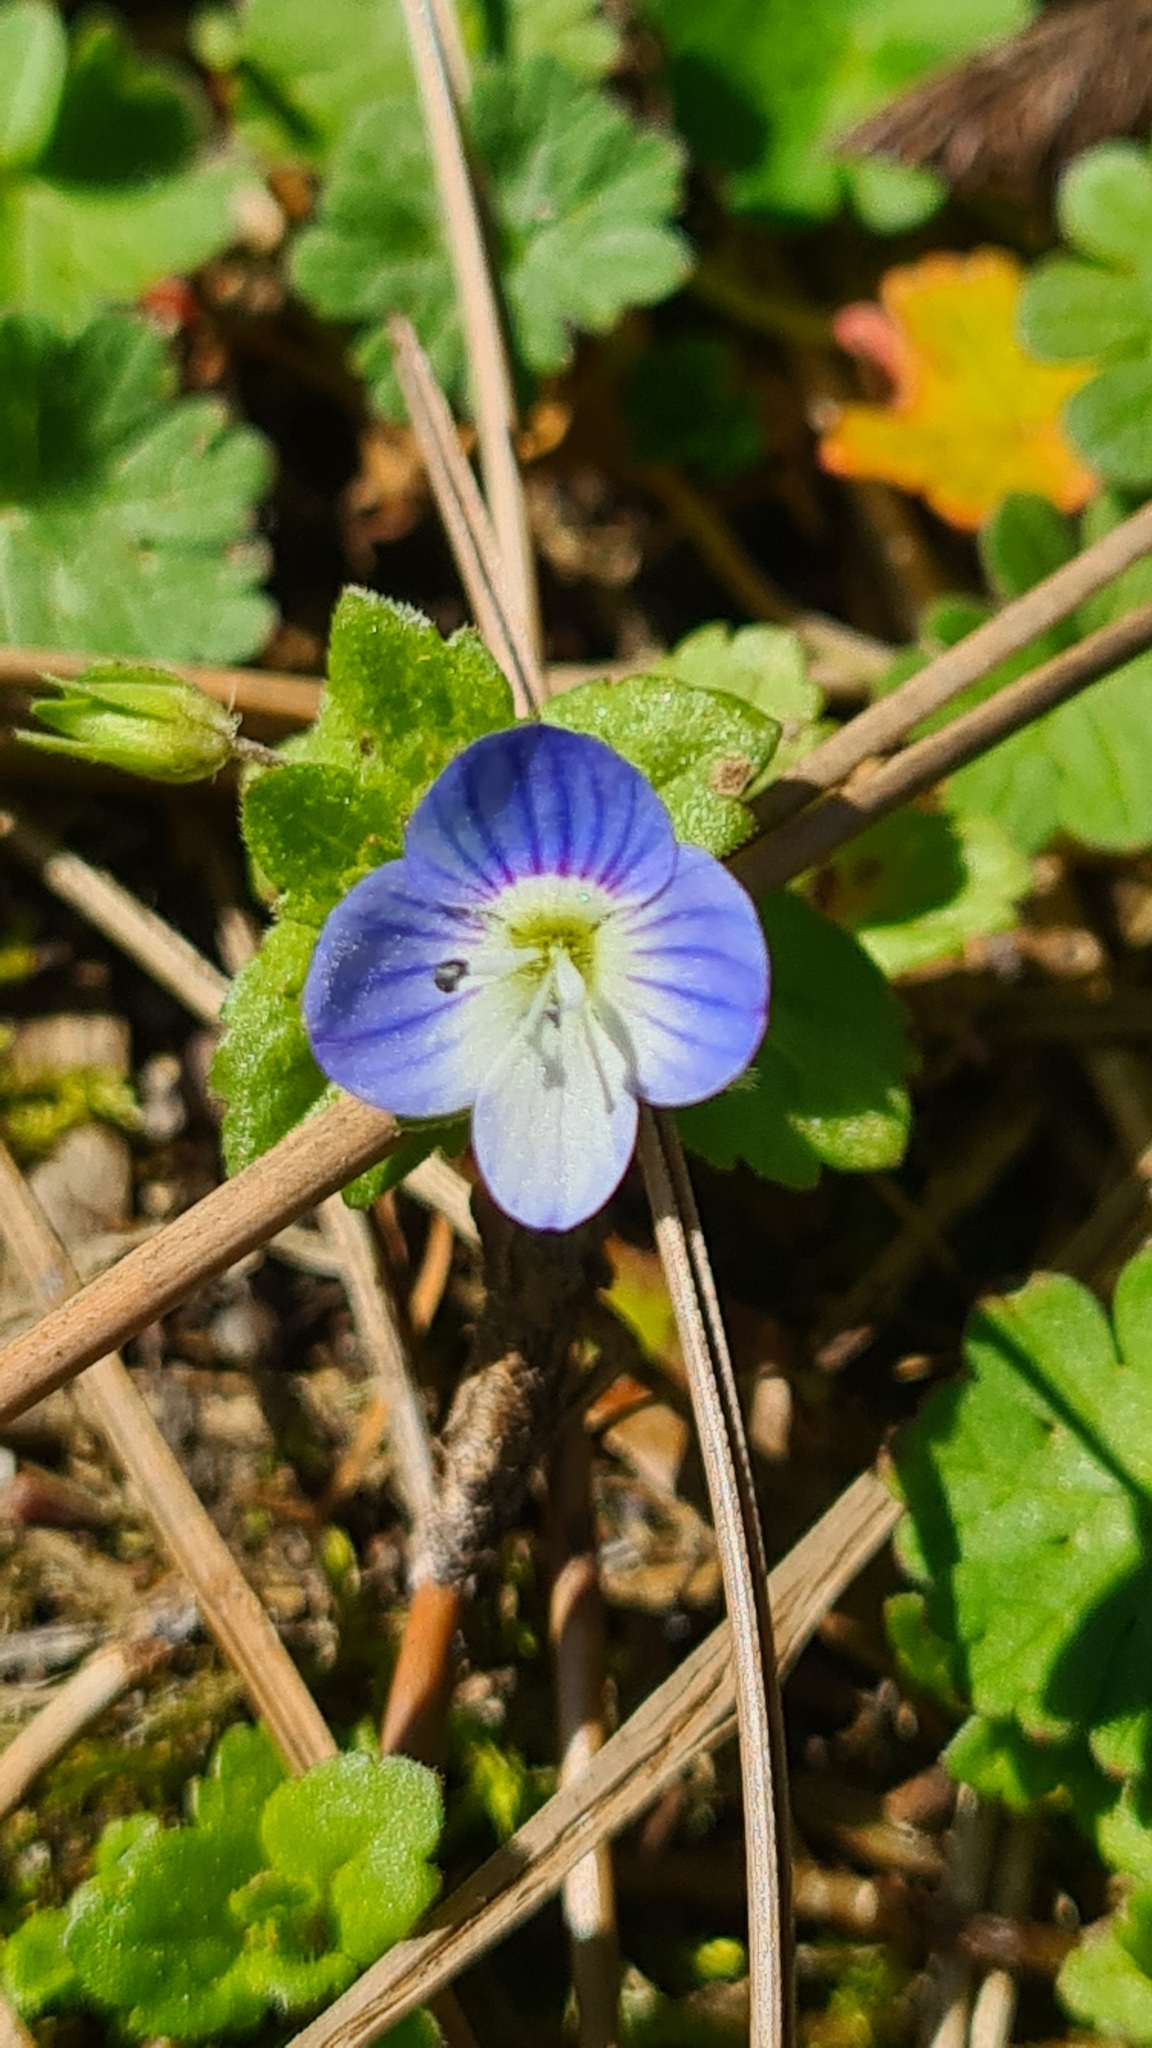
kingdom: Plantae
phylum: Tracheophyta
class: Magnoliopsida
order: Lamiales
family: Plantaginaceae
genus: Veronica
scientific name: Veronica persica
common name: Common field-speedwell
